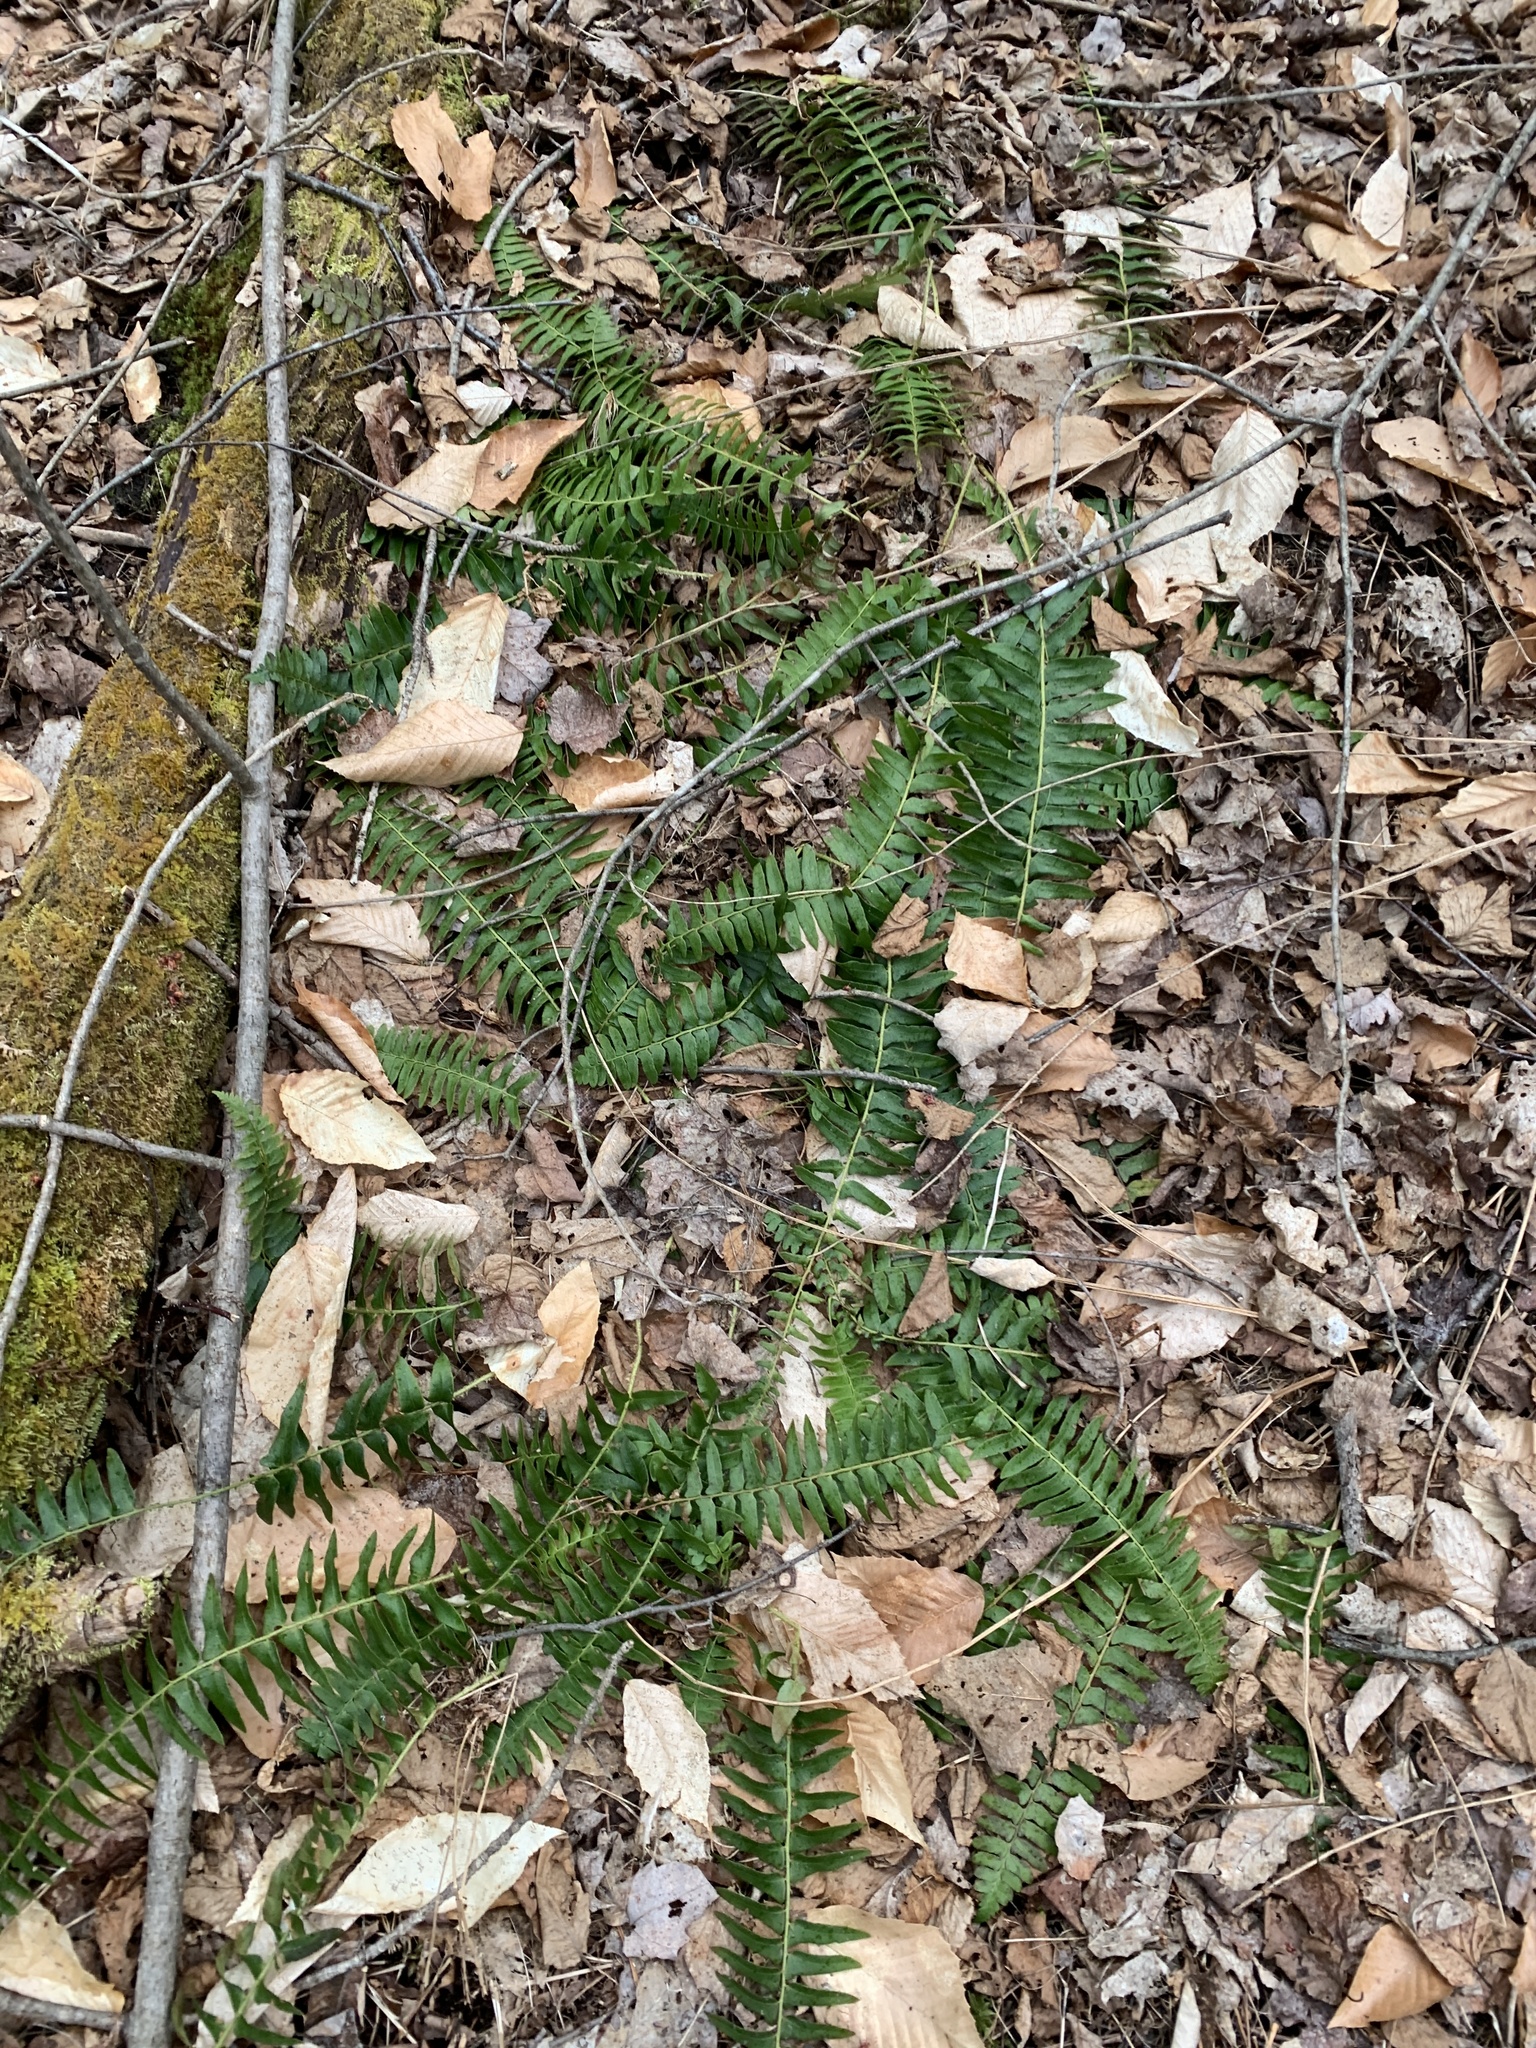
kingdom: Plantae
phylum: Tracheophyta
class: Polypodiopsida
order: Polypodiales
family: Dryopteridaceae
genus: Polystichum
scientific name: Polystichum acrostichoides
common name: Christmas fern
